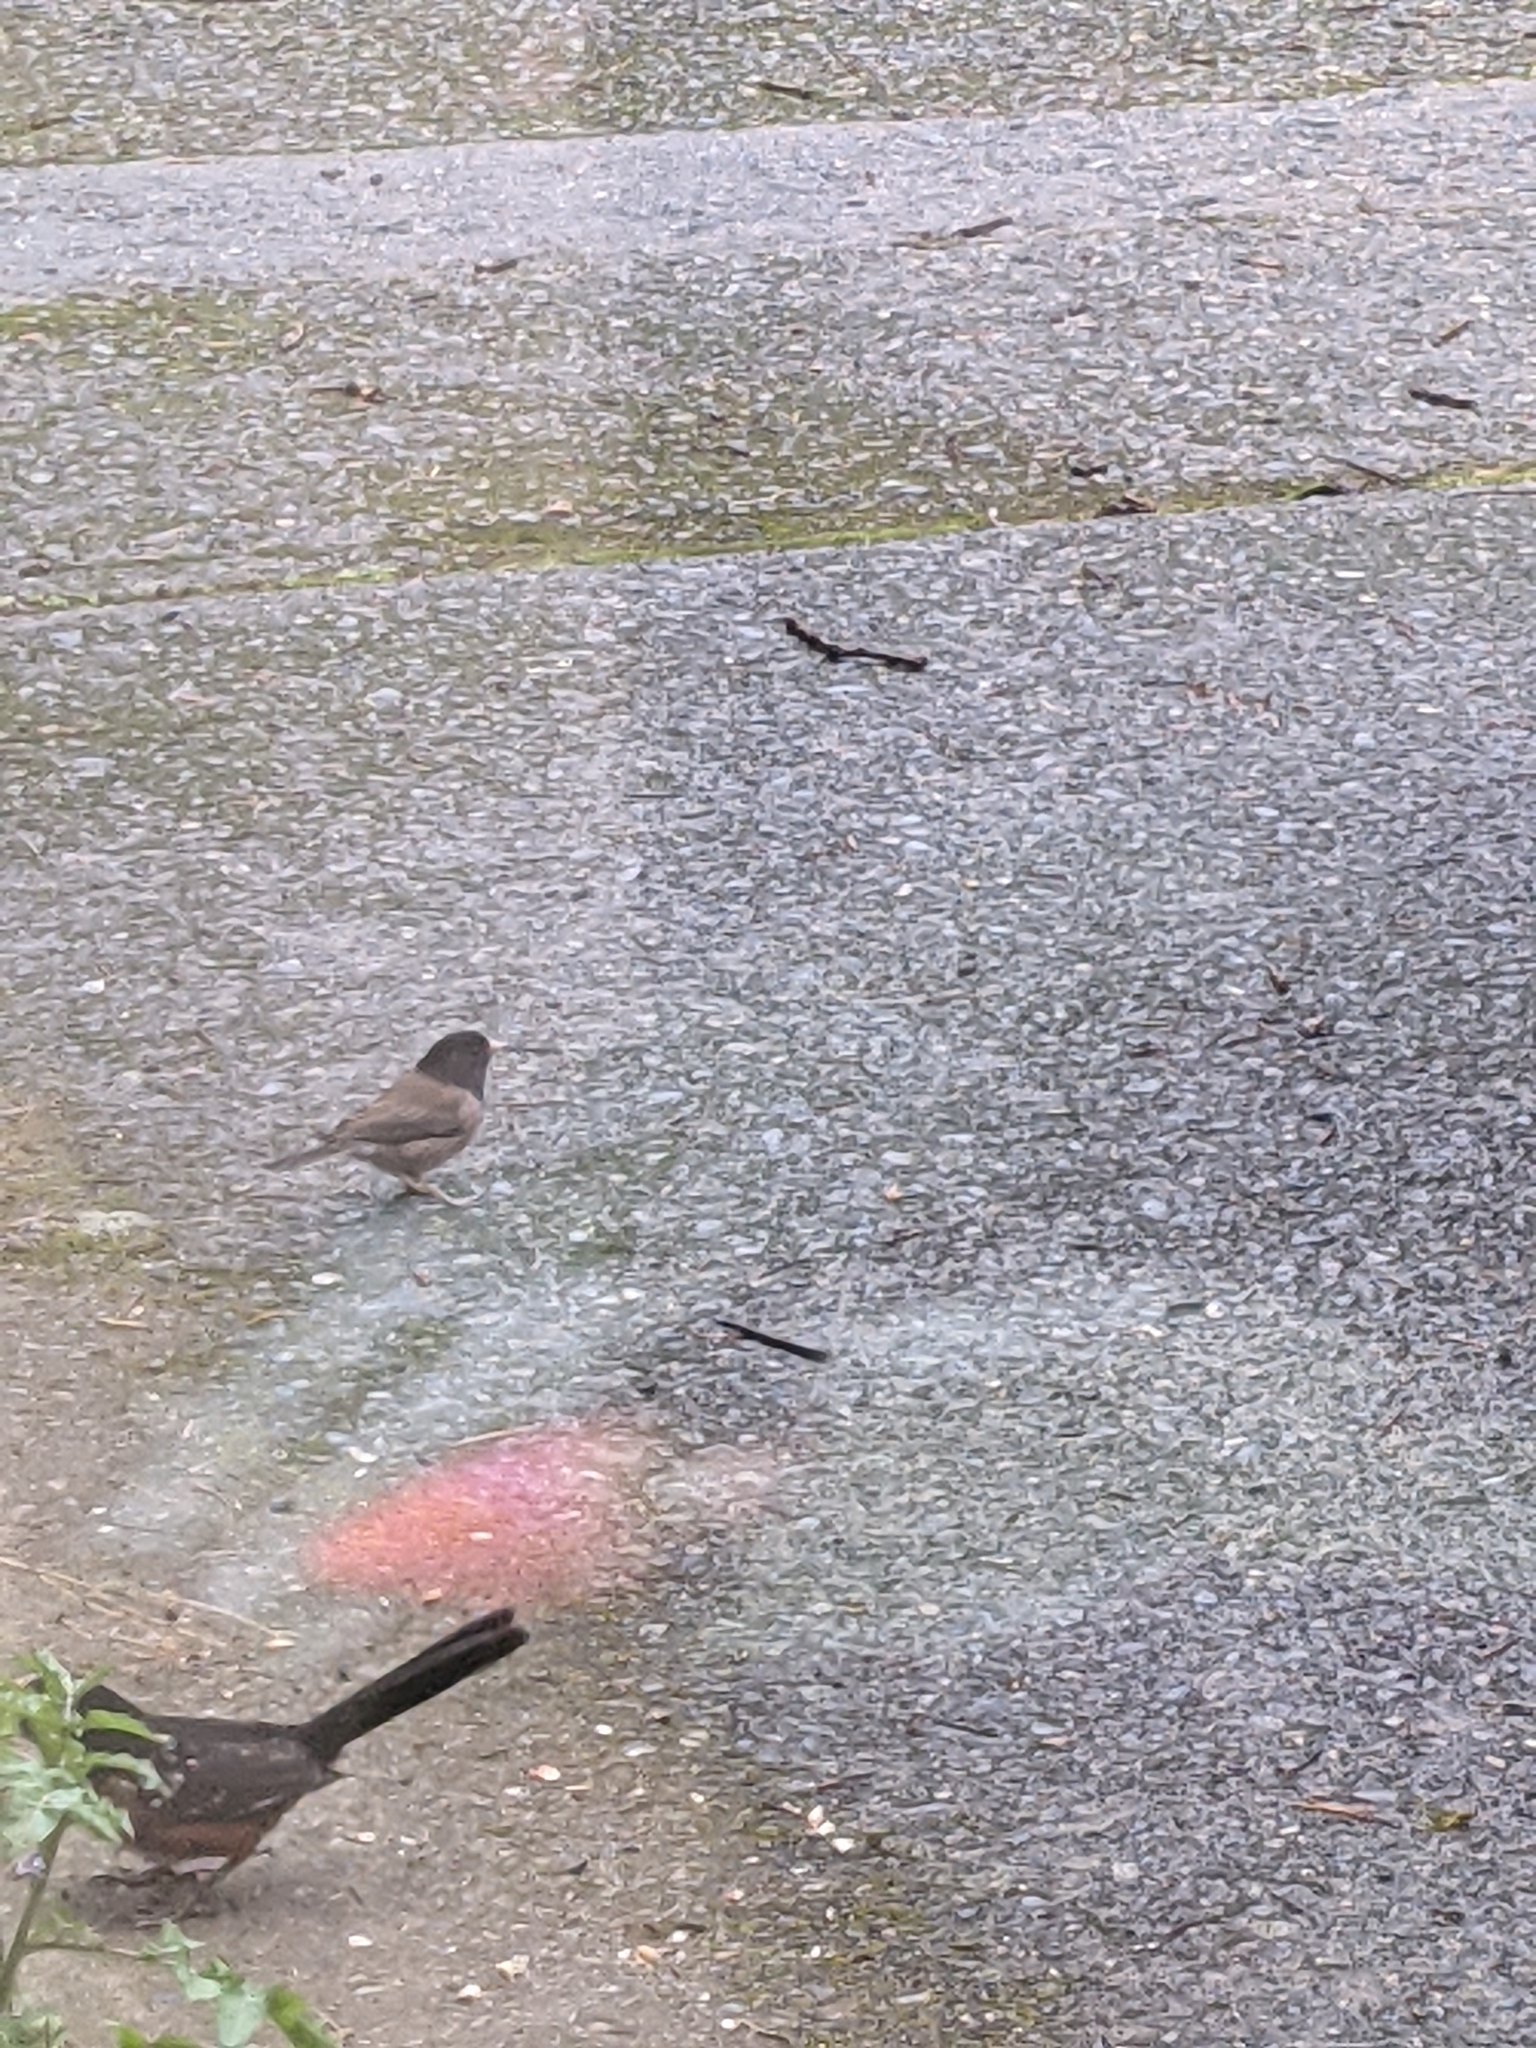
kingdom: Animalia
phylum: Chordata
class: Aves
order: Passeriformes
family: Passerellidae
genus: Pipilo
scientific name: Pipilo maculatus
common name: Spotted towhee
